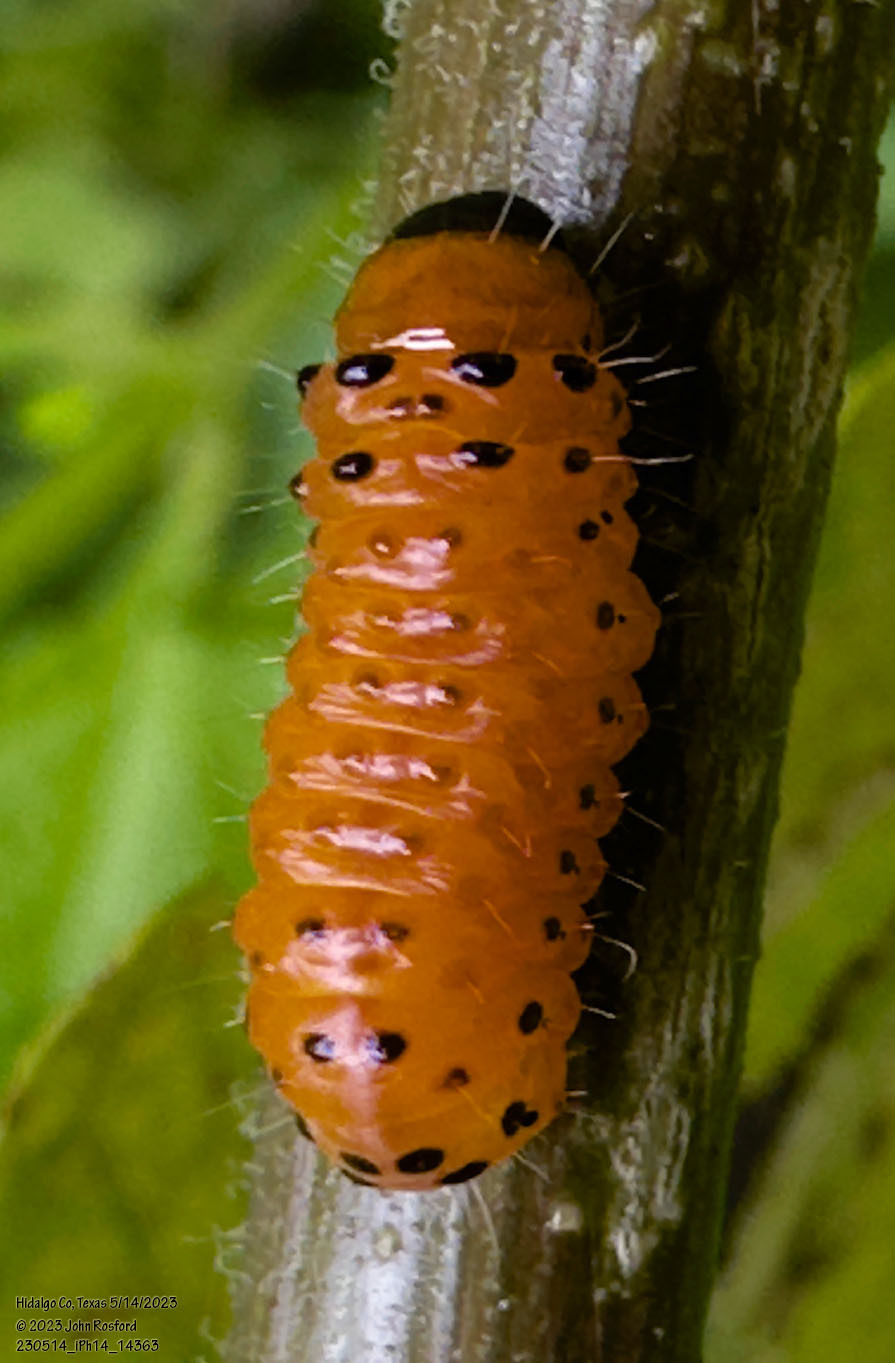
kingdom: Animalia
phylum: Arthropoda
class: Insecta
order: Lepidoptera
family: Thyrididae
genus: Dysodia
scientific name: Dysodia oculatana
